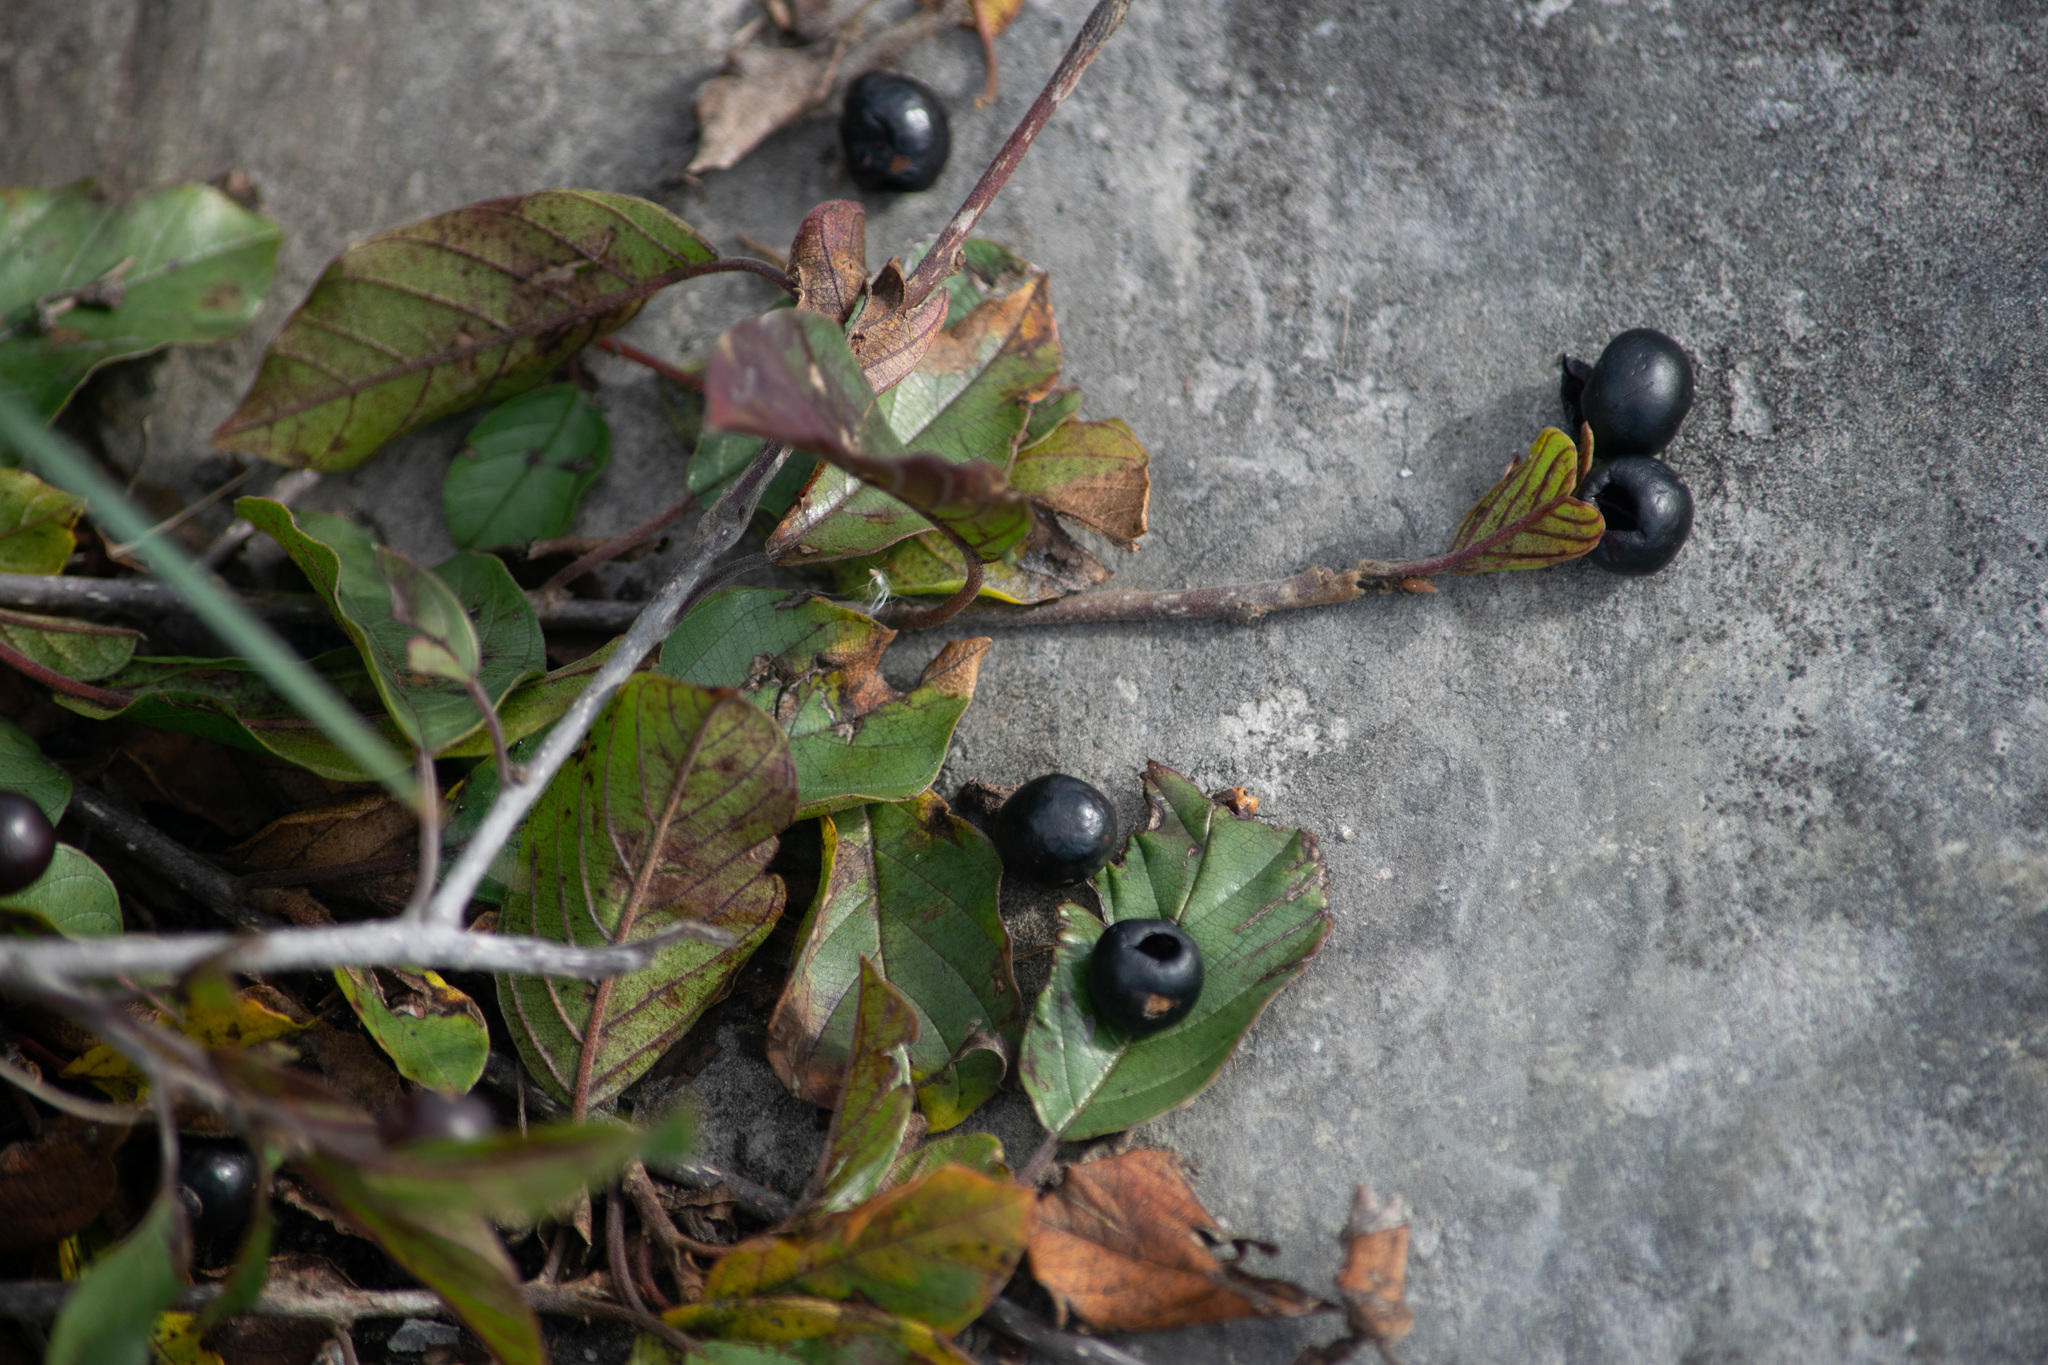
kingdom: Plantae
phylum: Tracheophyta
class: Magnoliopsida
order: Rosales
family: Rhamnaceae
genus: Frangula
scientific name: Frangula alnus
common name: Alder buckthorn
